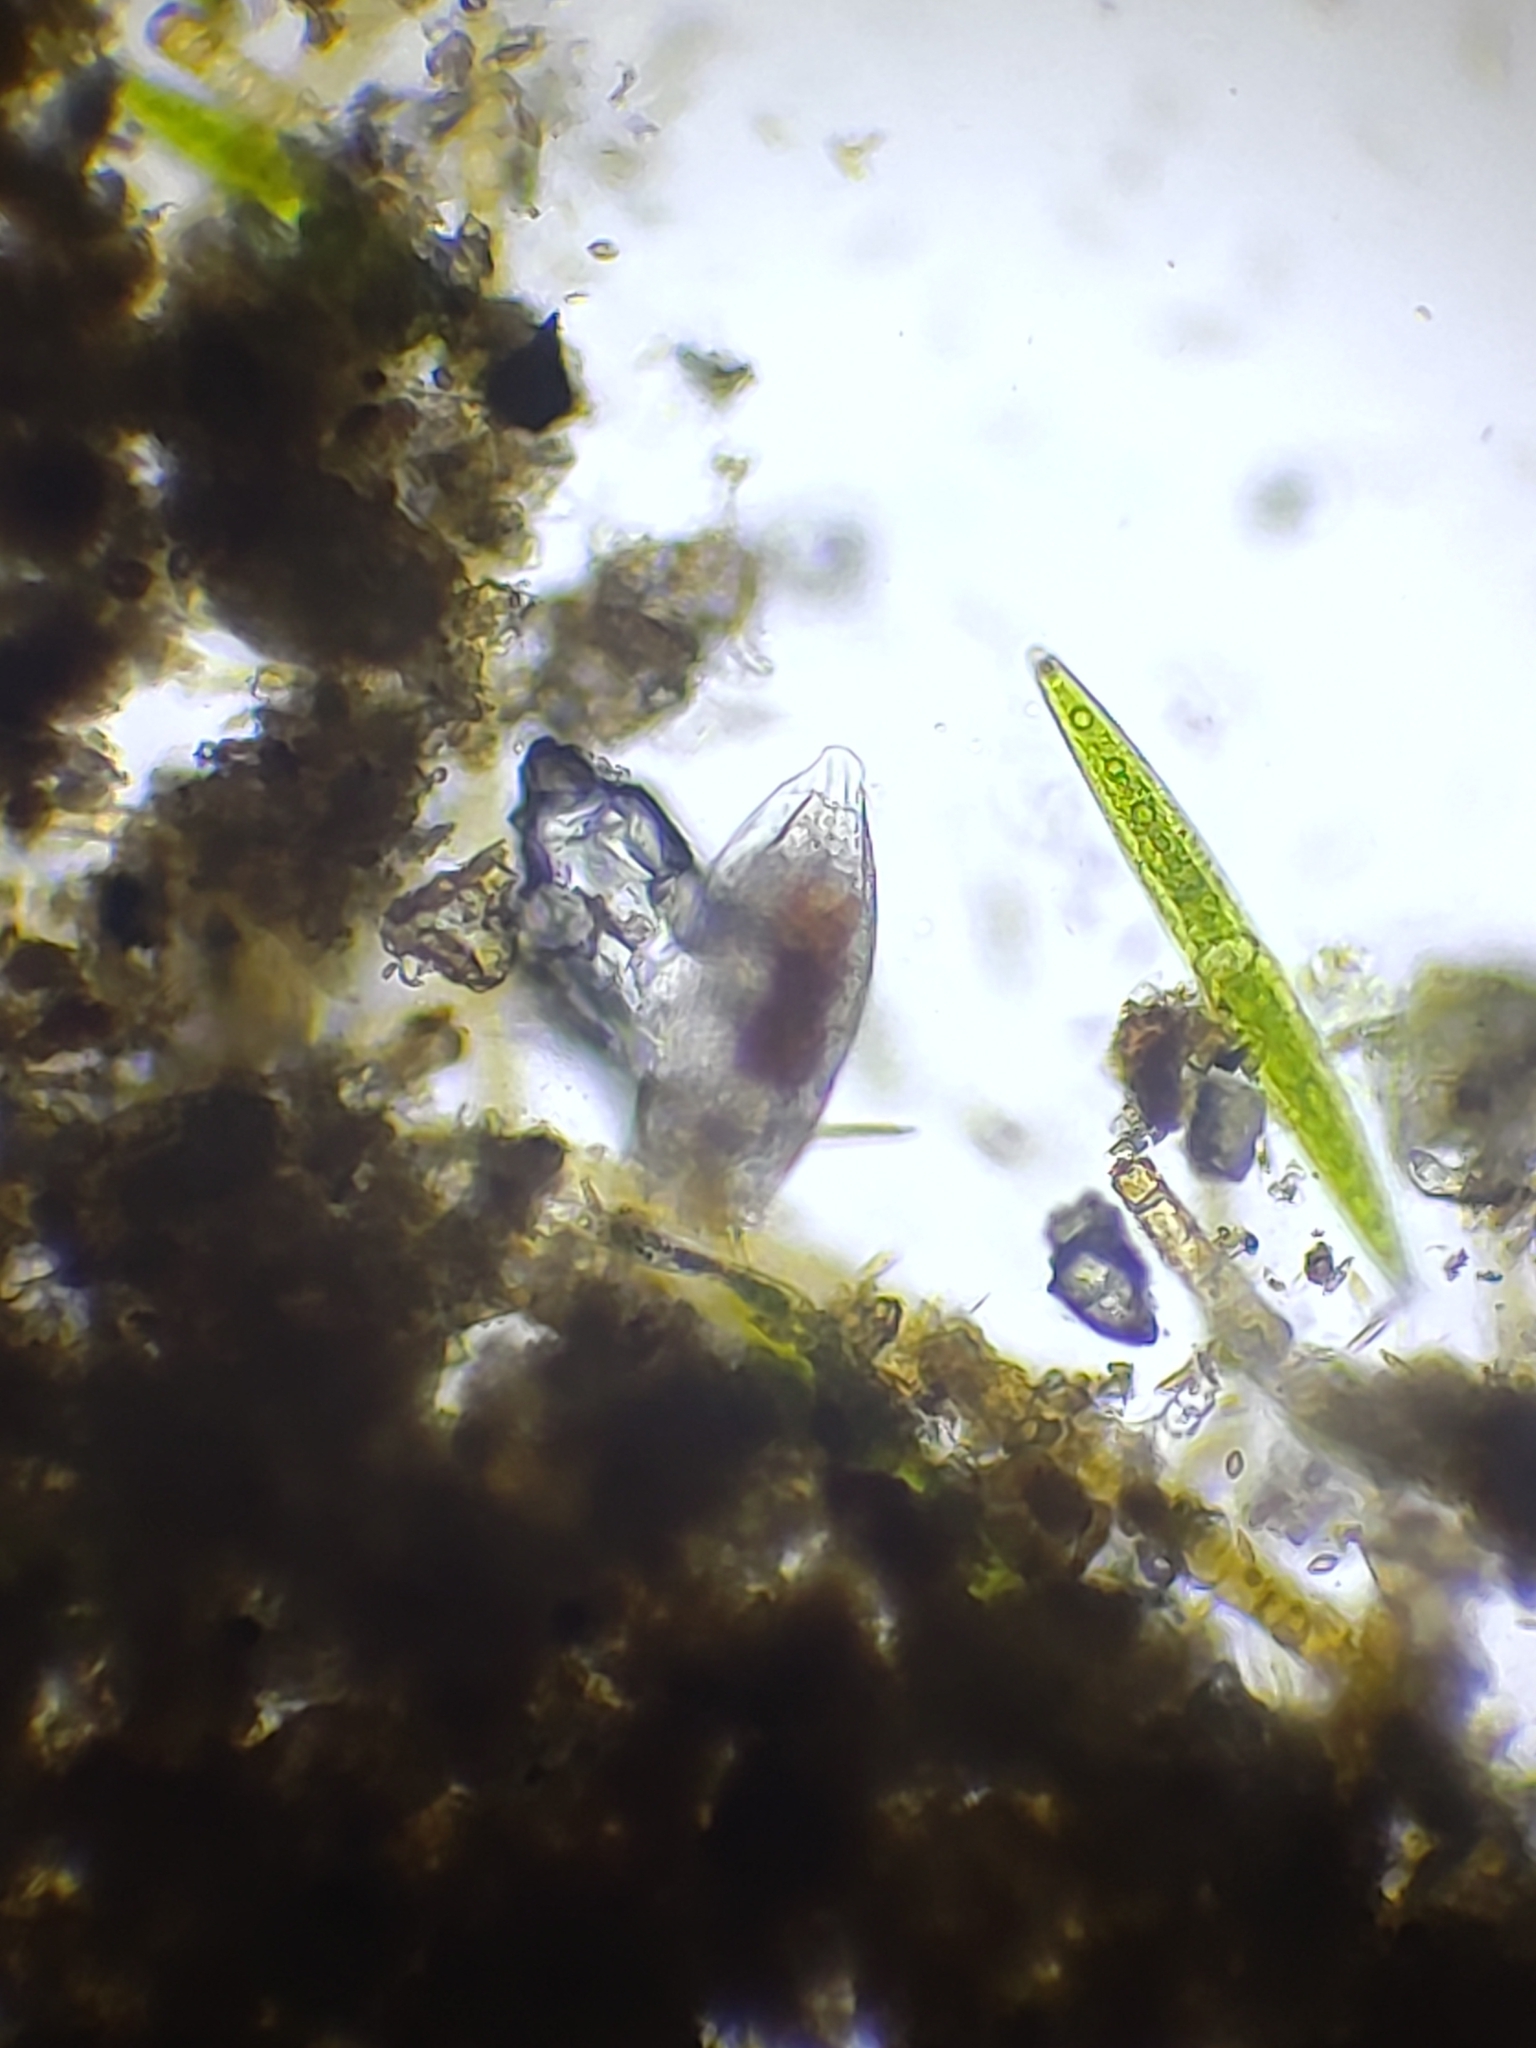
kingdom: Plantae
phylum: Charophyta
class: Zygnematophyceae
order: Zygnematales
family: Closteriaceae
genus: Closterium
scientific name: Closterium acerosum
